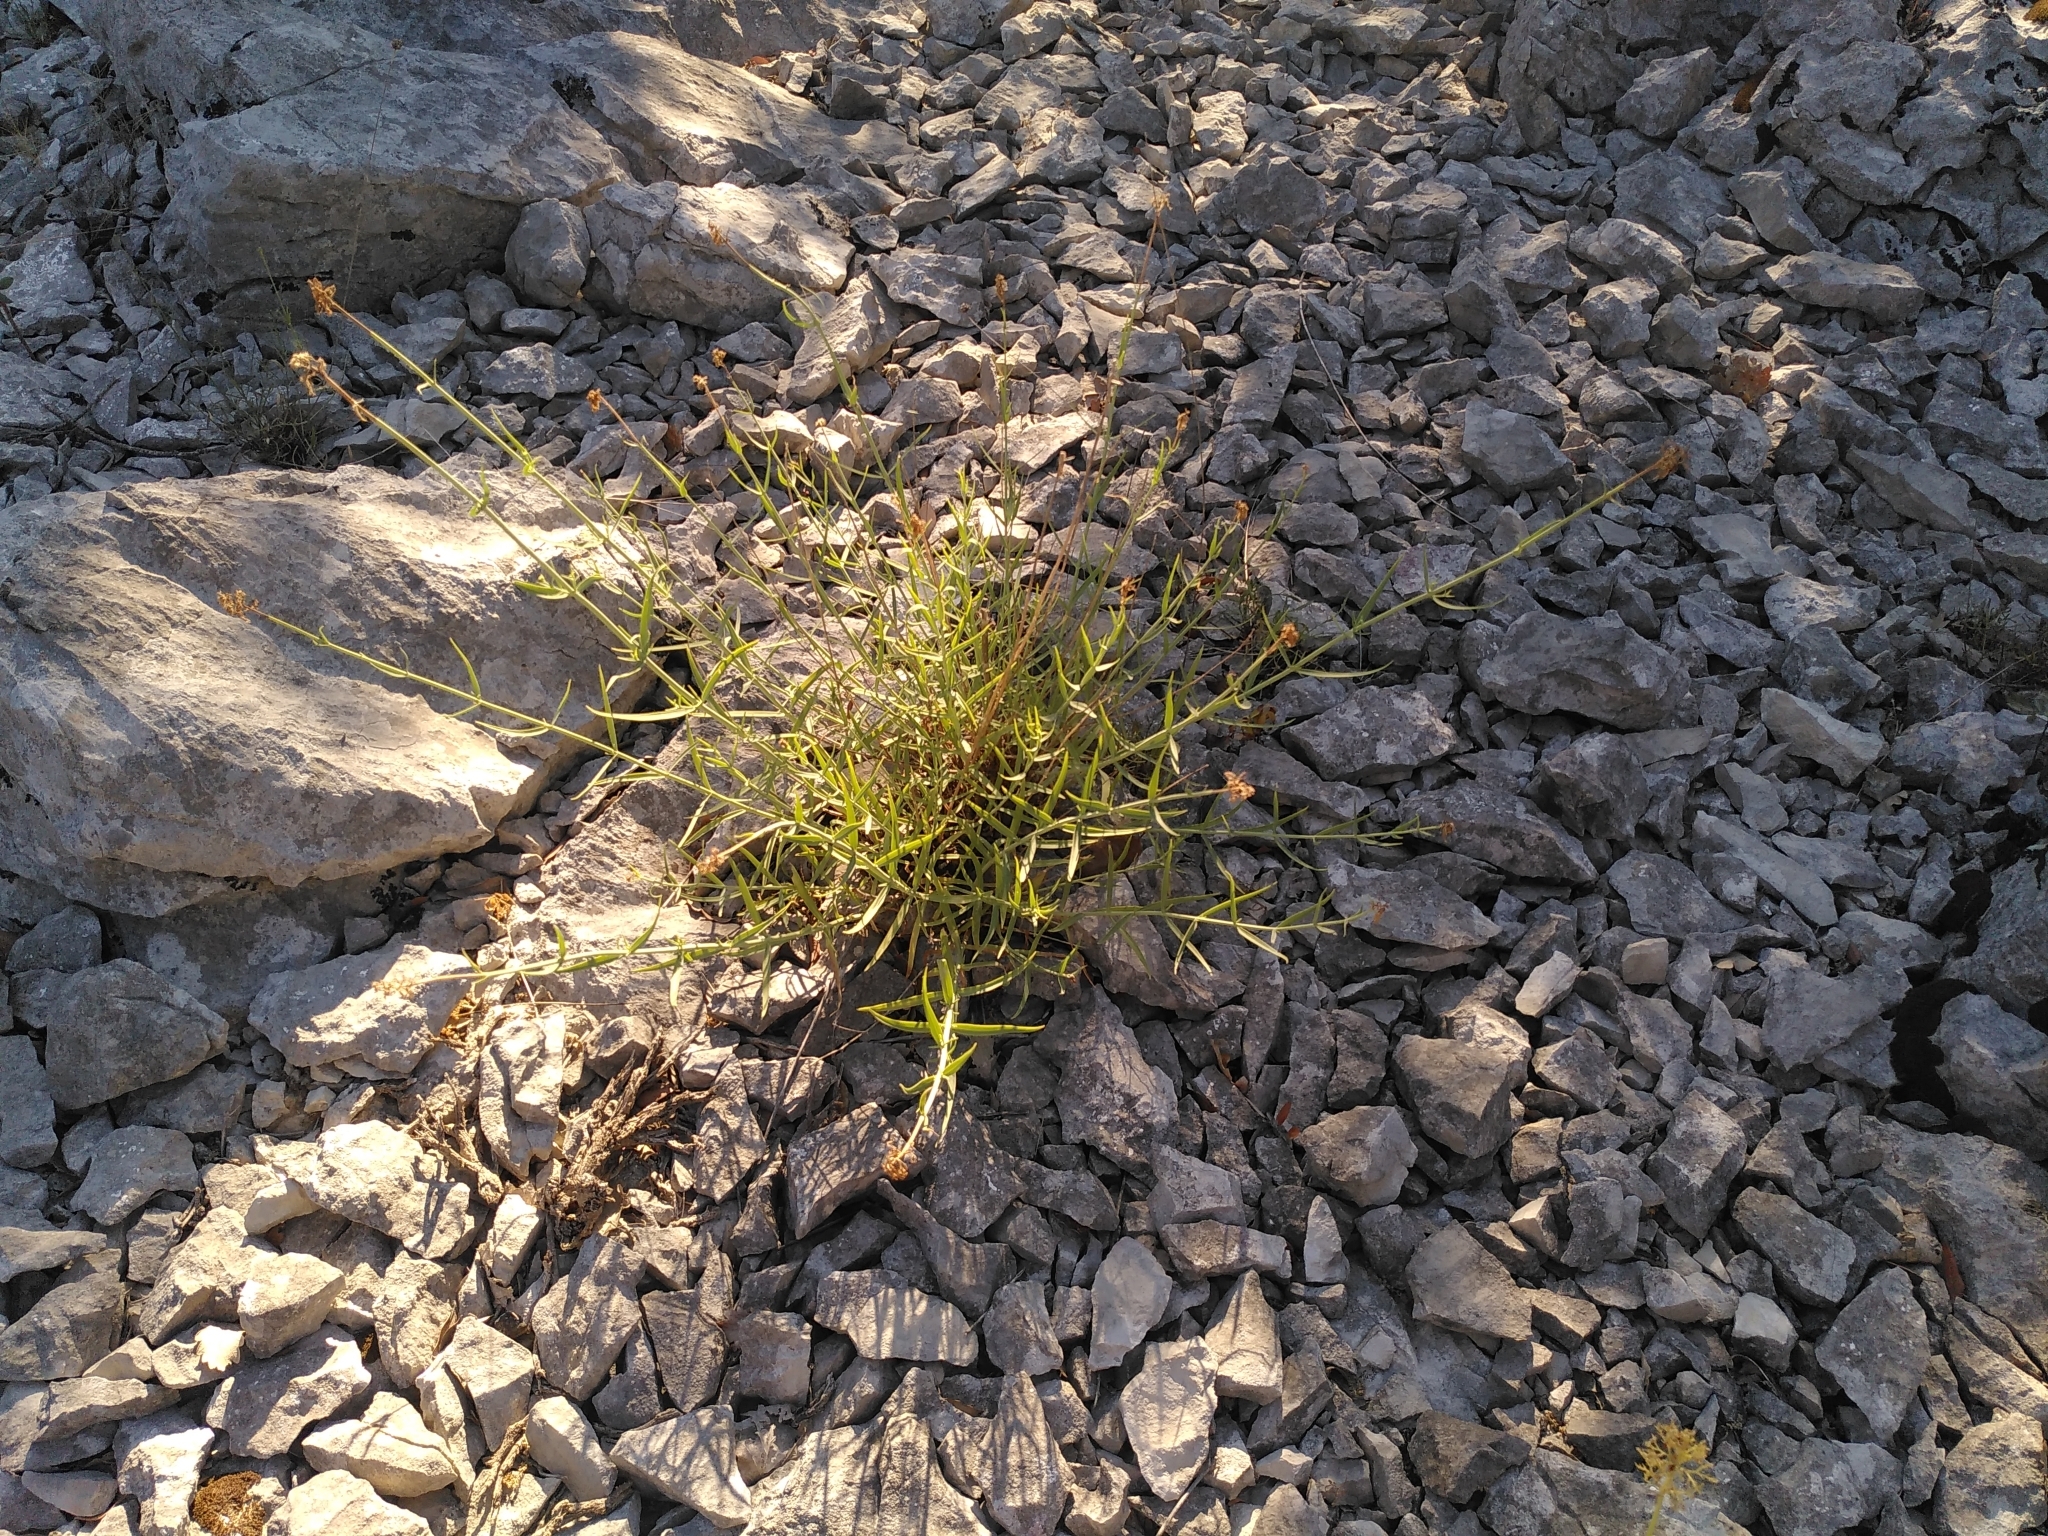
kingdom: Plantae
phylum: Tracheophyta
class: Magnoliopsida
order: Dipsacales
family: Caprifoliaceae
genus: Centranthus
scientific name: Centranthus lecoqii
